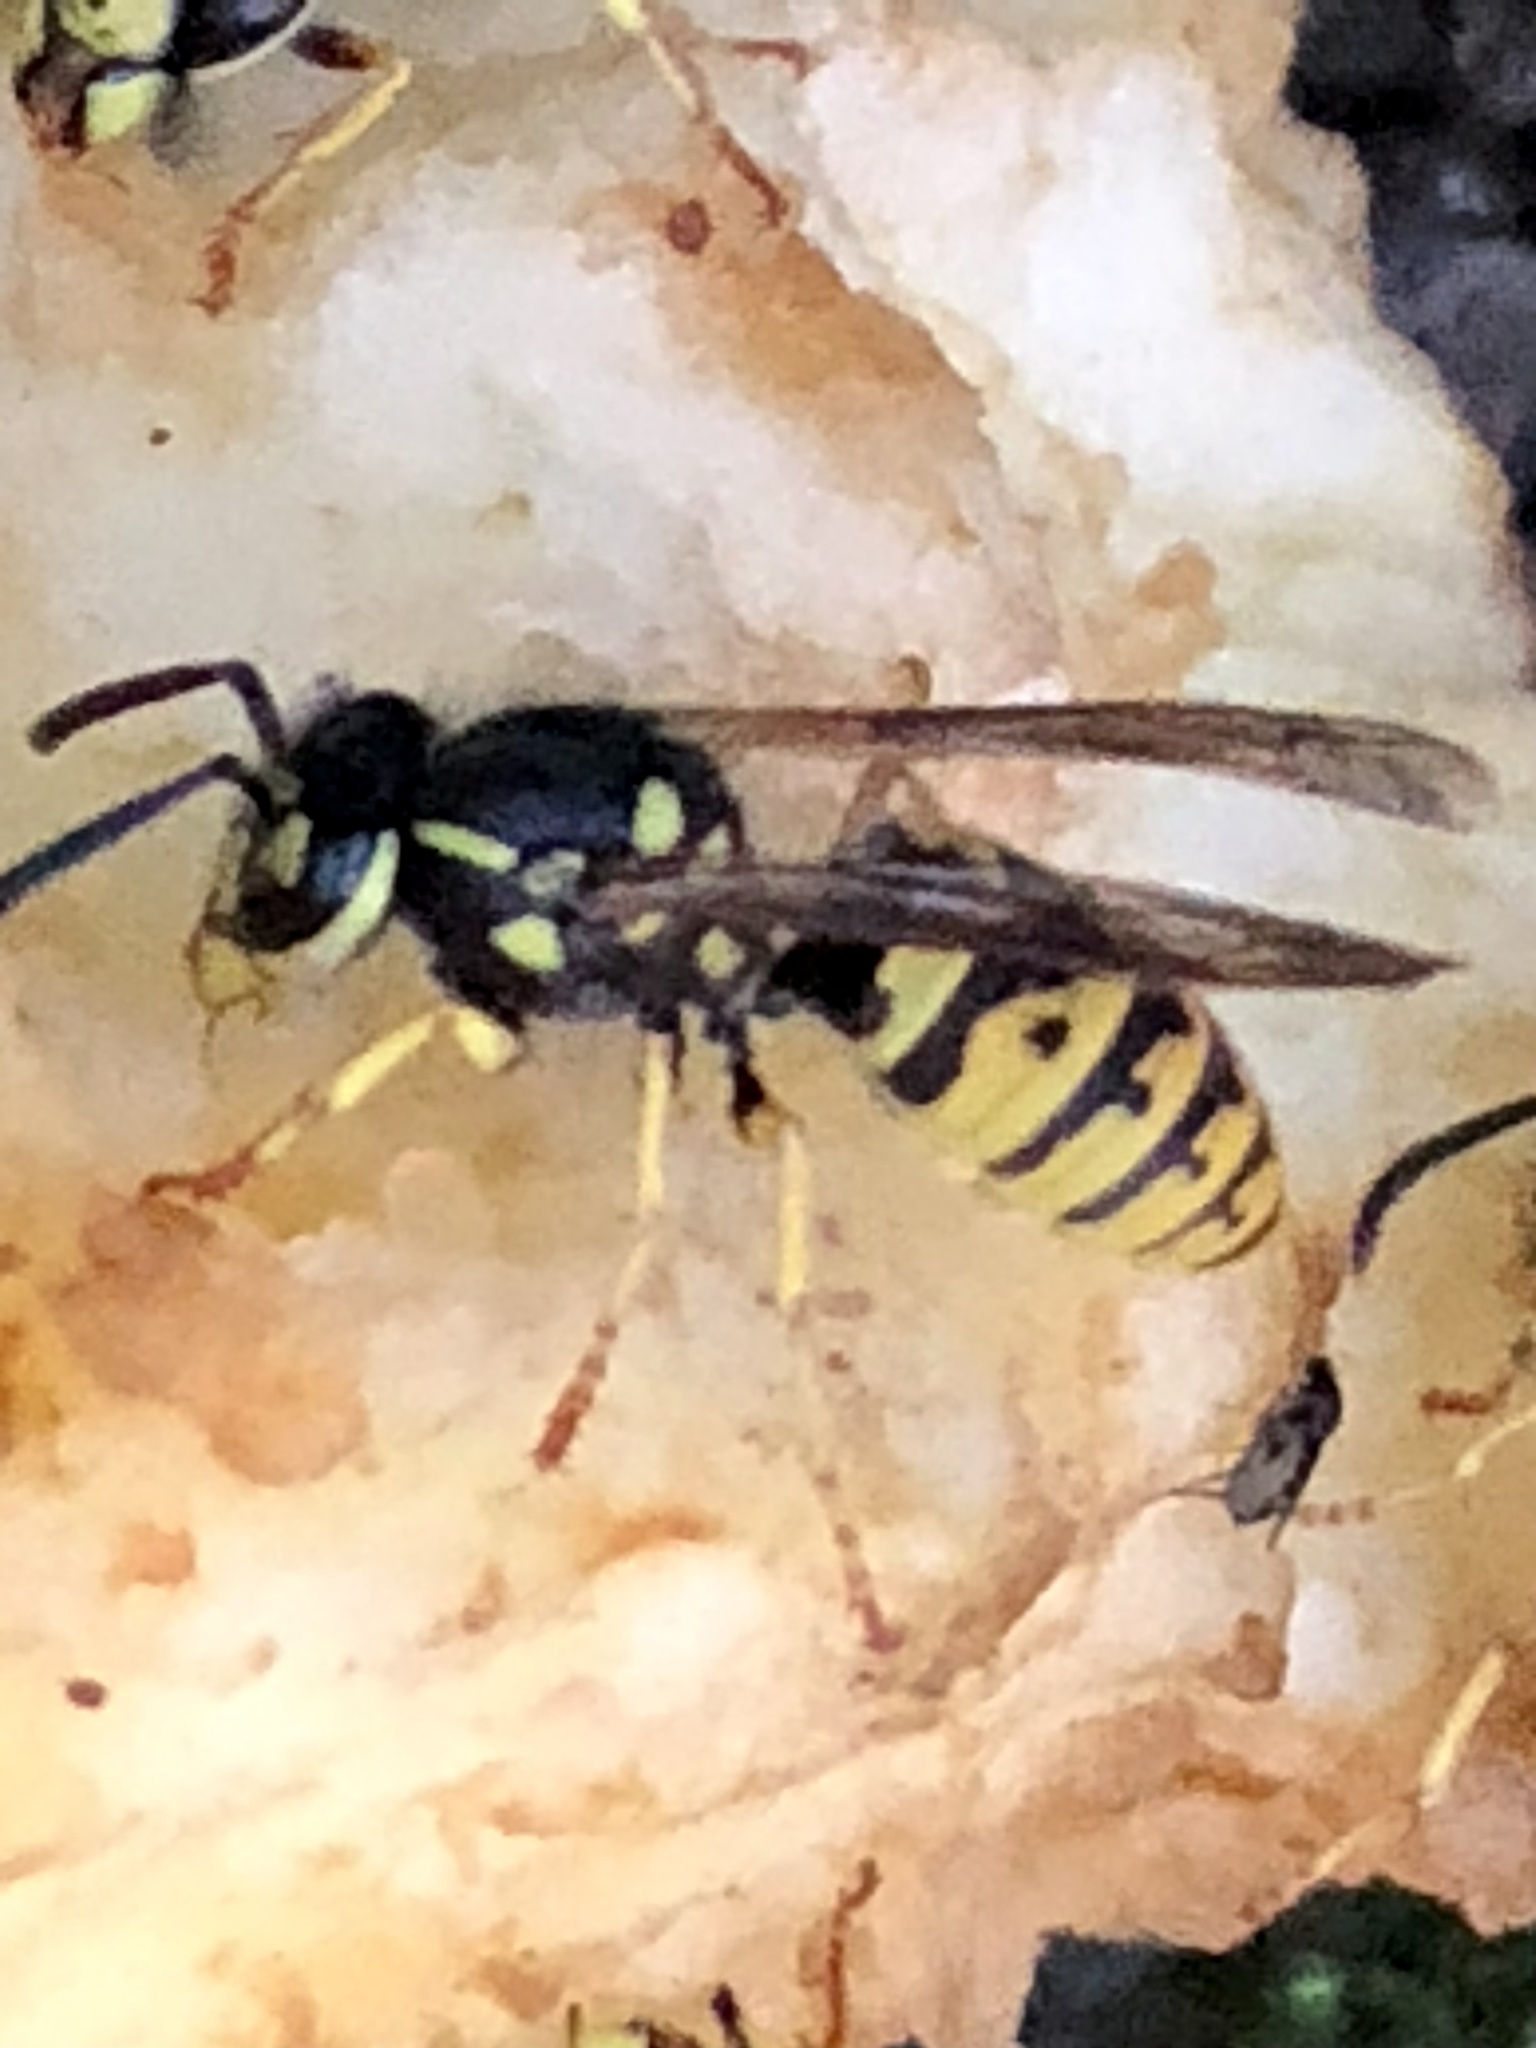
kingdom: Animalia
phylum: Arthropoda
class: Insecta
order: Hymenoptera
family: Vespidae
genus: Vespula
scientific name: Vespula germanica
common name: German wasp
